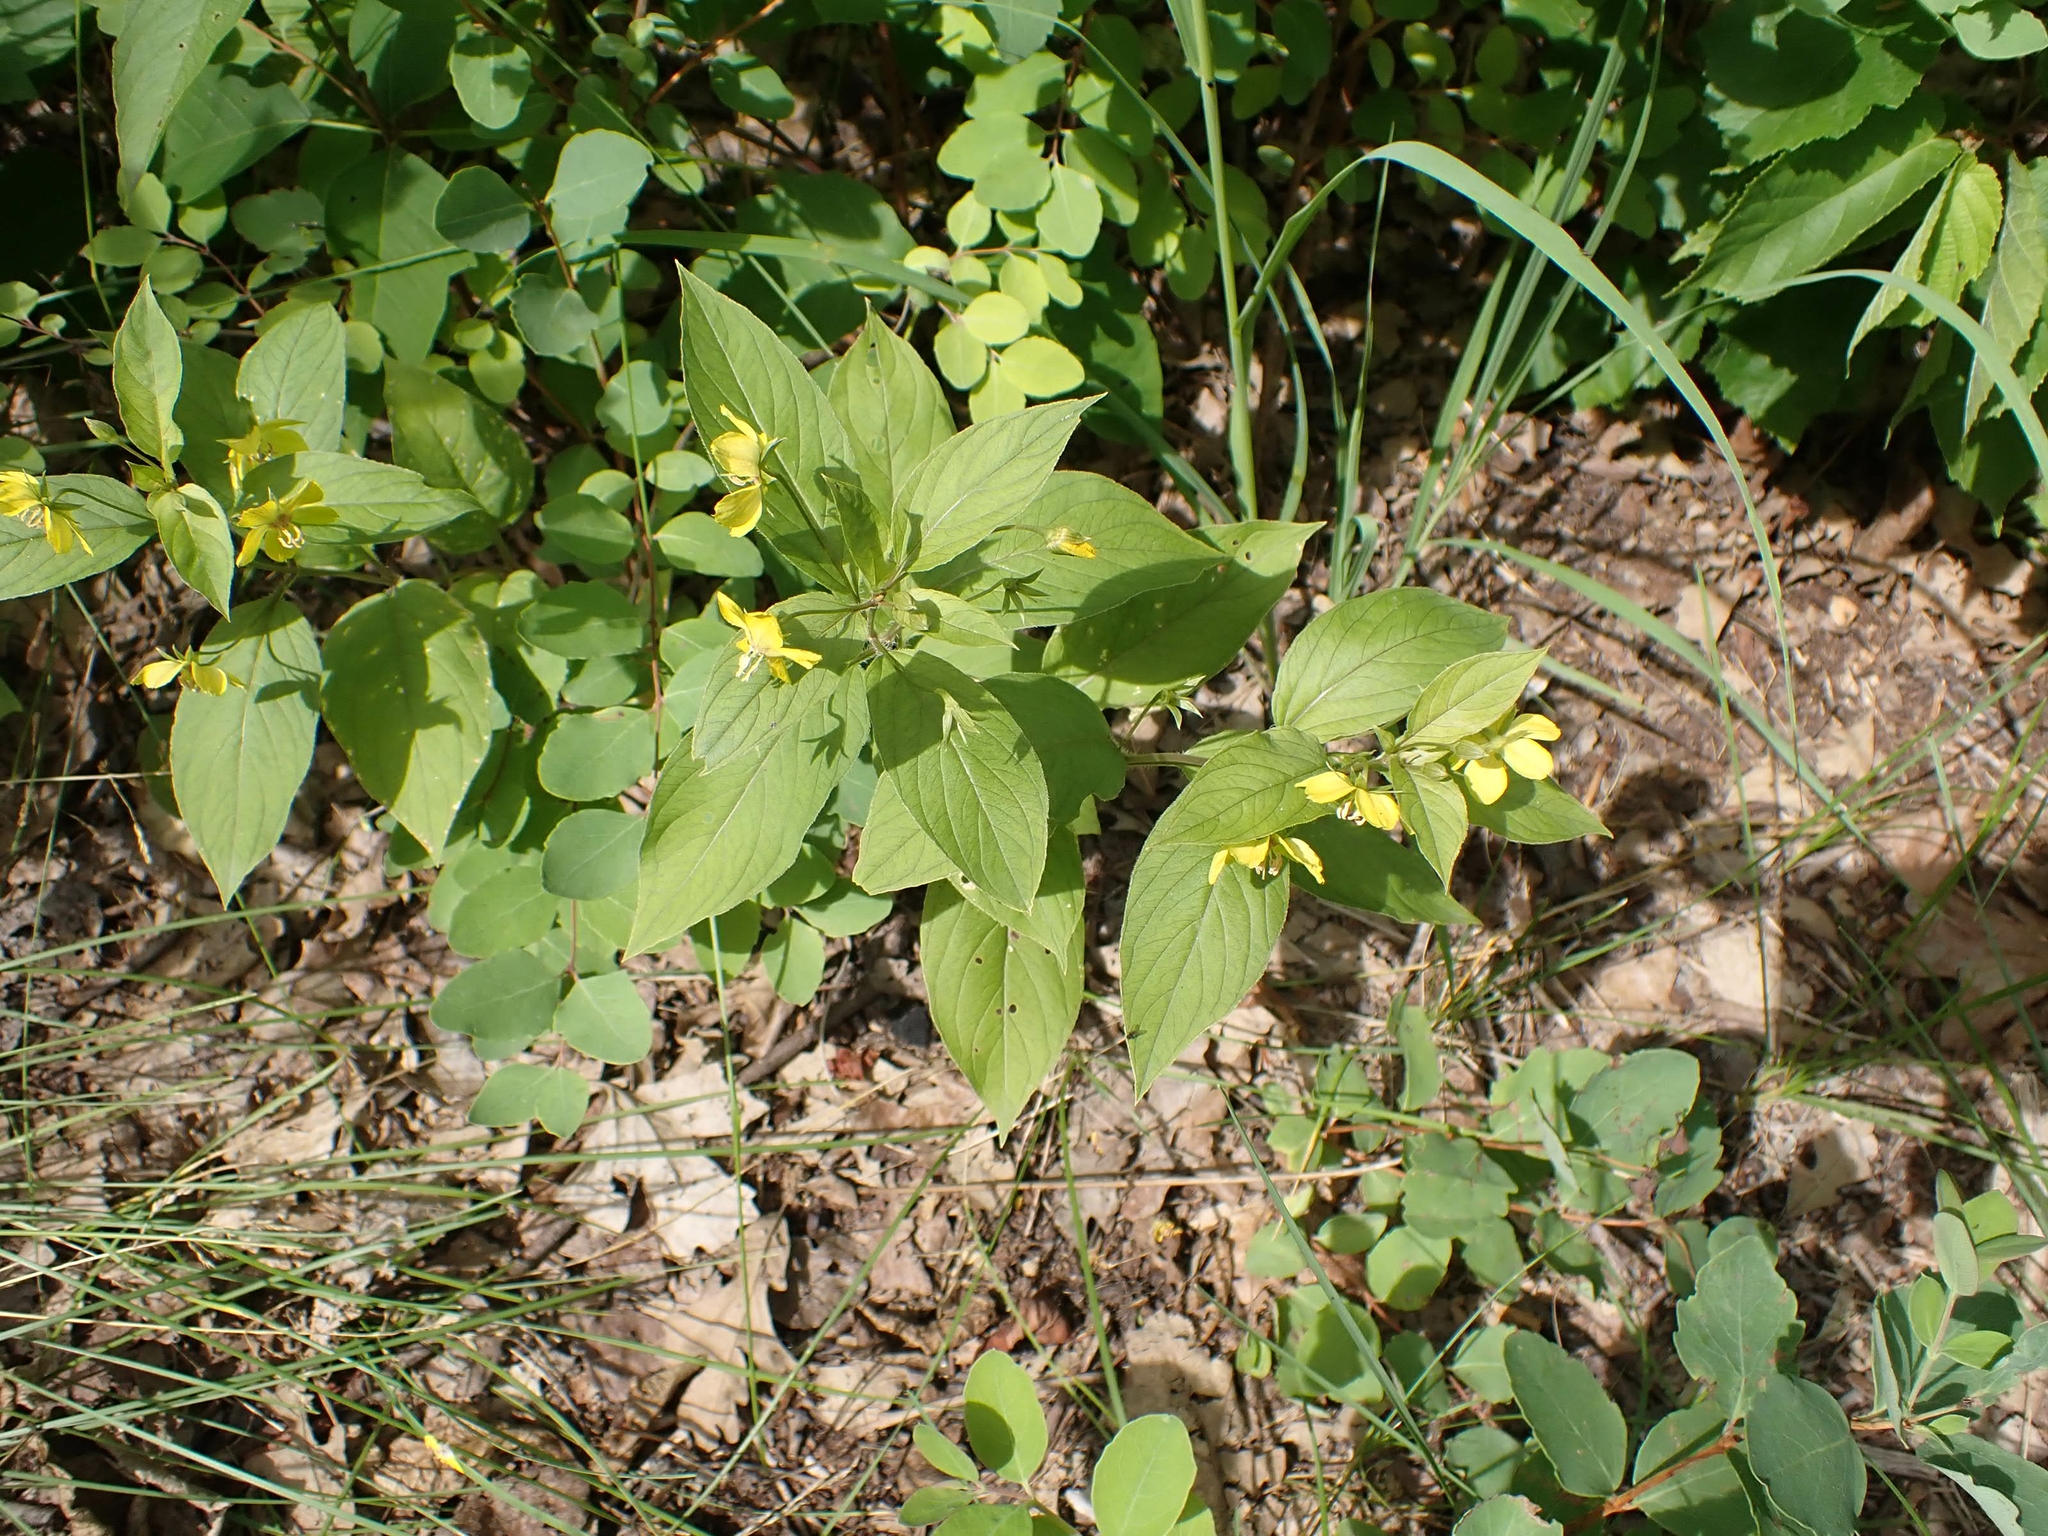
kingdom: Plantae
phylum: Tracheophyta
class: Magnoliopsida
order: Ericales
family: Primulaceae
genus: Lysimachia
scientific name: Lysimachia ciliata
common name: Fringed loosestrife
